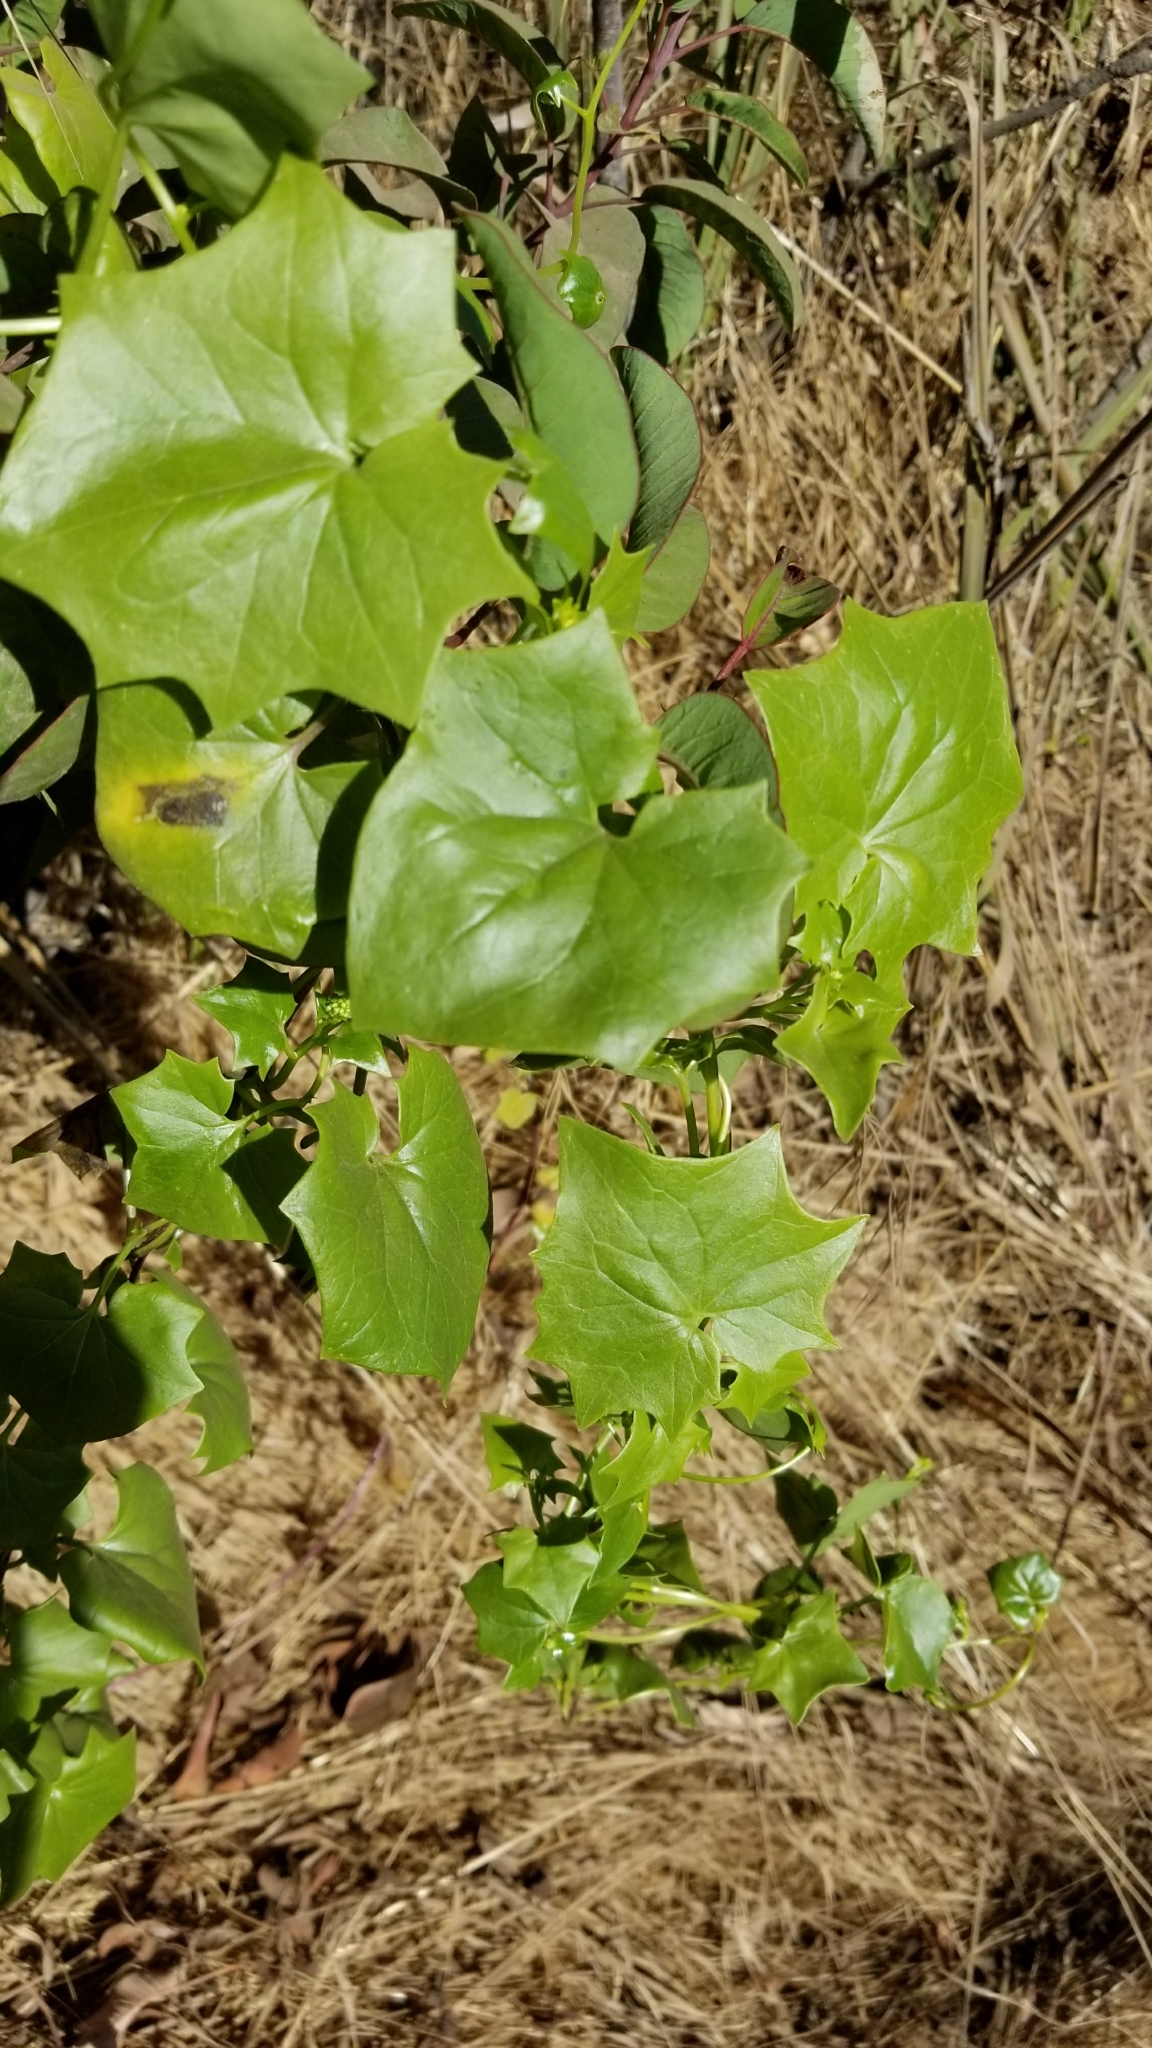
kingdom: Plantae
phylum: Tracheophyta
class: Magnoliopsida
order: Asterales
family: Asteraceae
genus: Delairea
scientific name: Delairea odorata
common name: Cape-ivy
